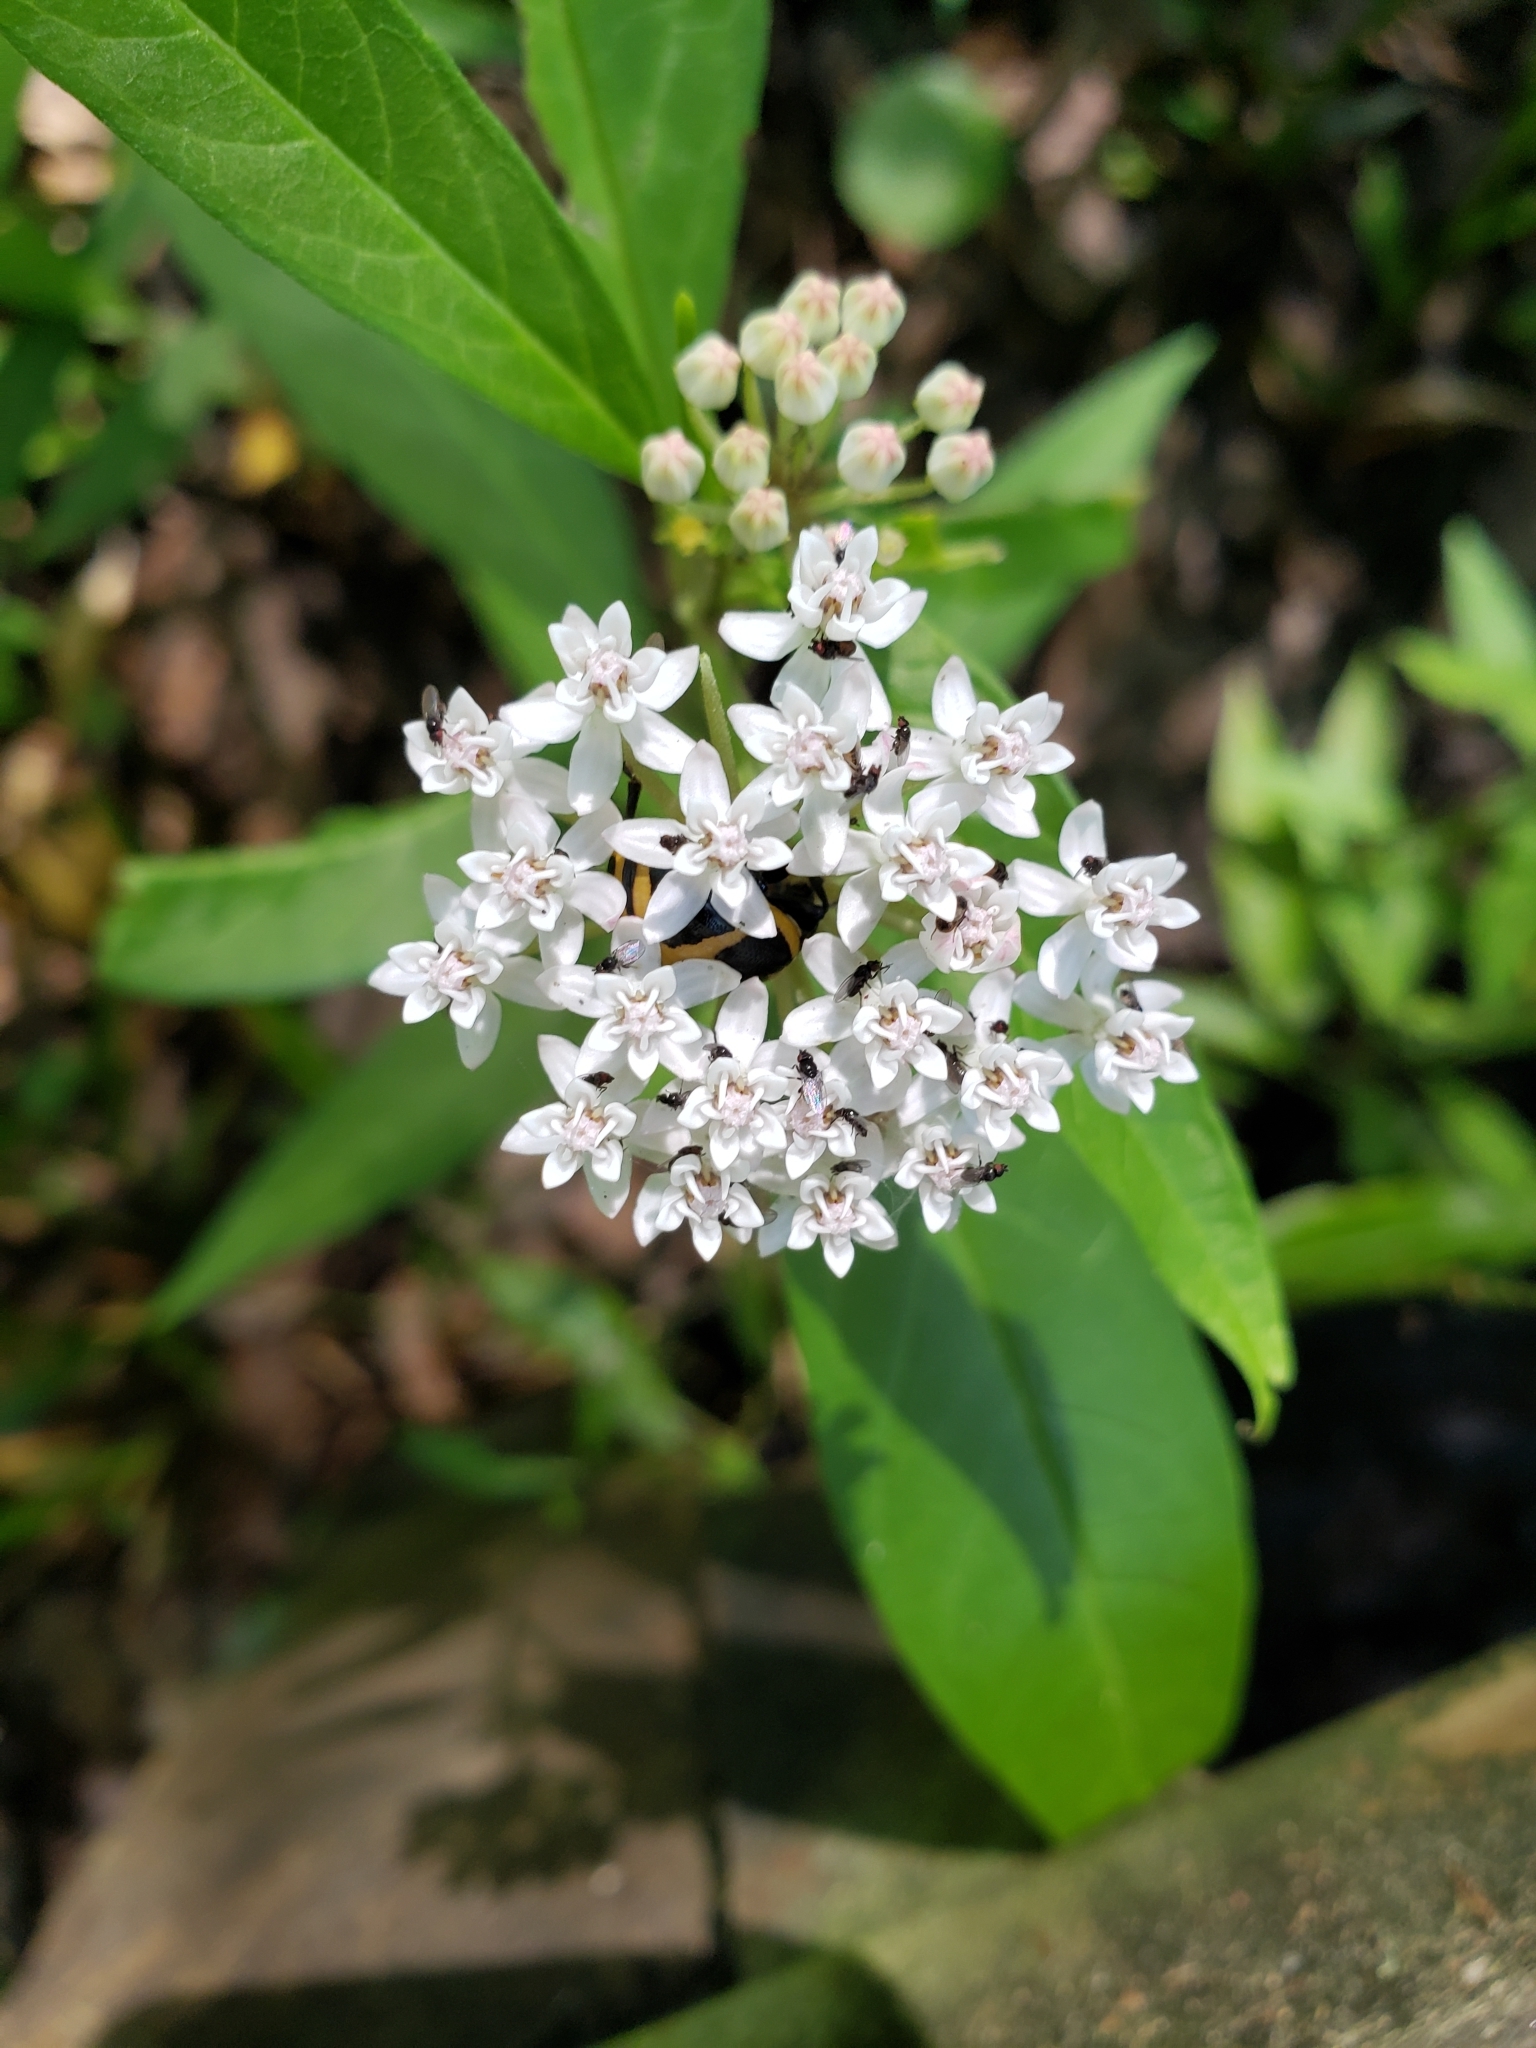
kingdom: Plantae
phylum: Tracheophyta
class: Magnoliopsida
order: Gentianales
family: Apocynaceae
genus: Asclepias
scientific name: Asclepias perennis
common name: Smooth-seed milkweed
